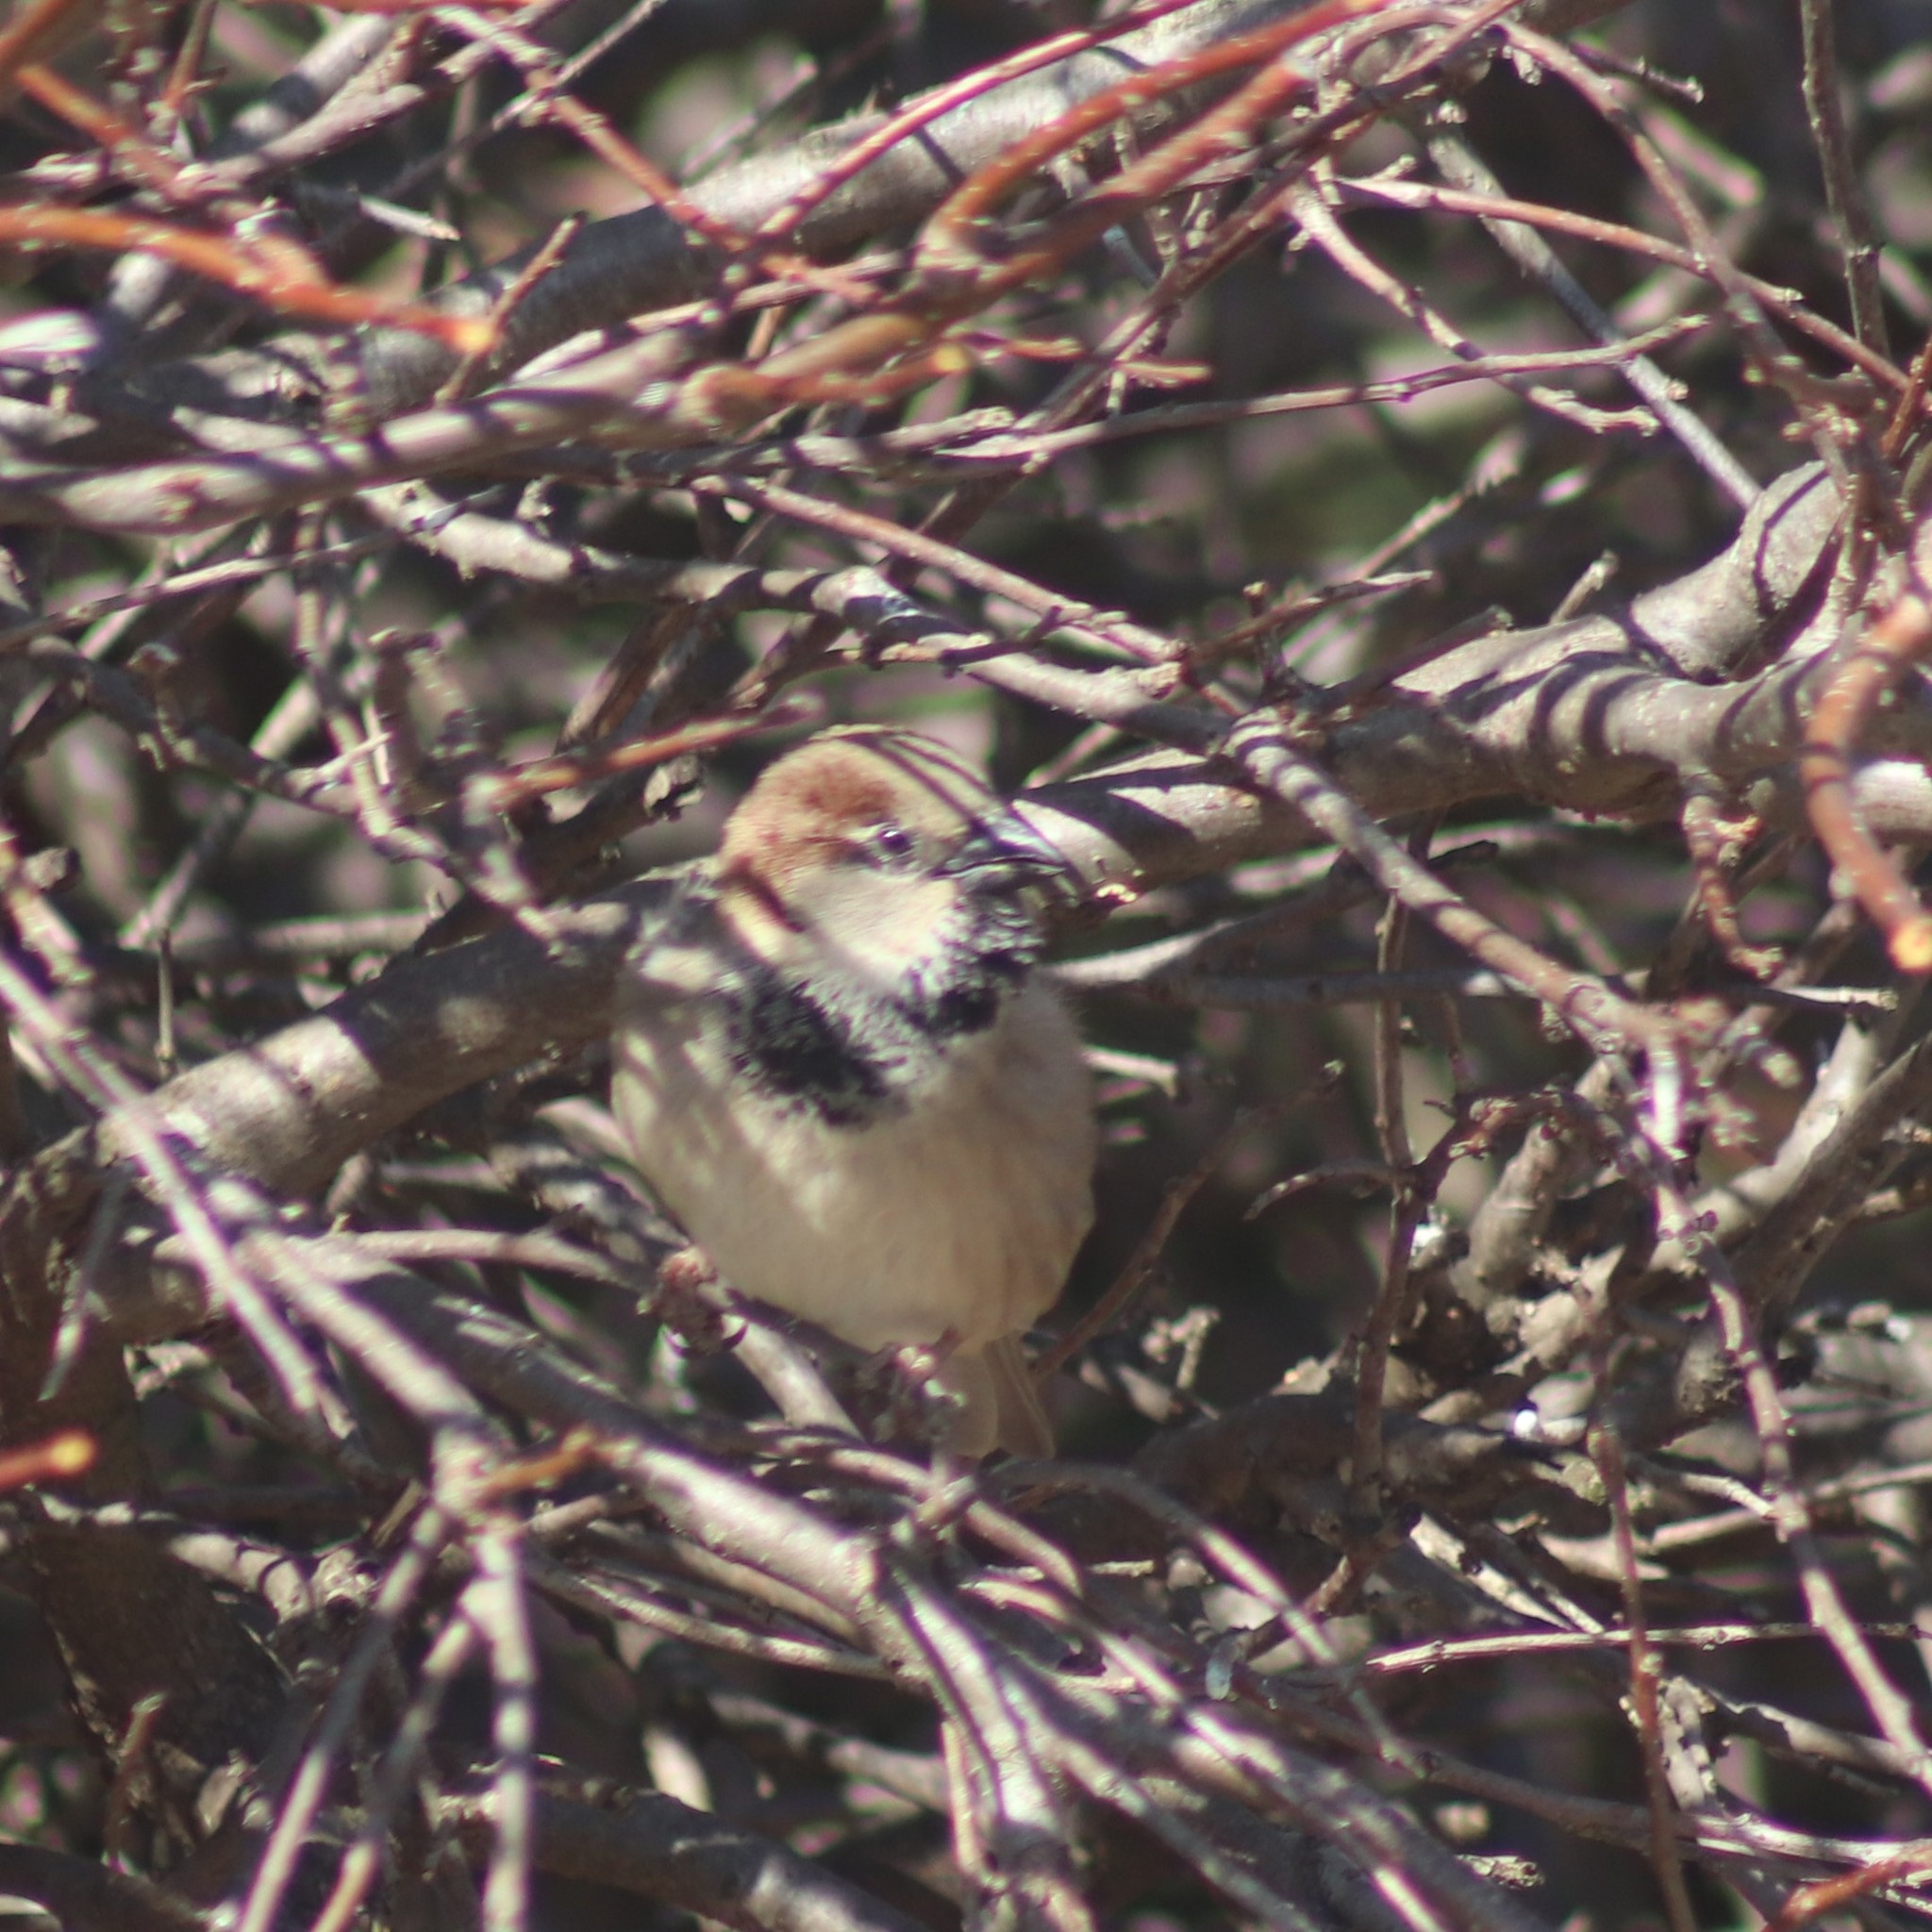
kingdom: Animalia
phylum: Chordata
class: Aves
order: Passeriformes
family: Passeridae
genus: Passer
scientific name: Passer domesticus
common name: House sparrow
